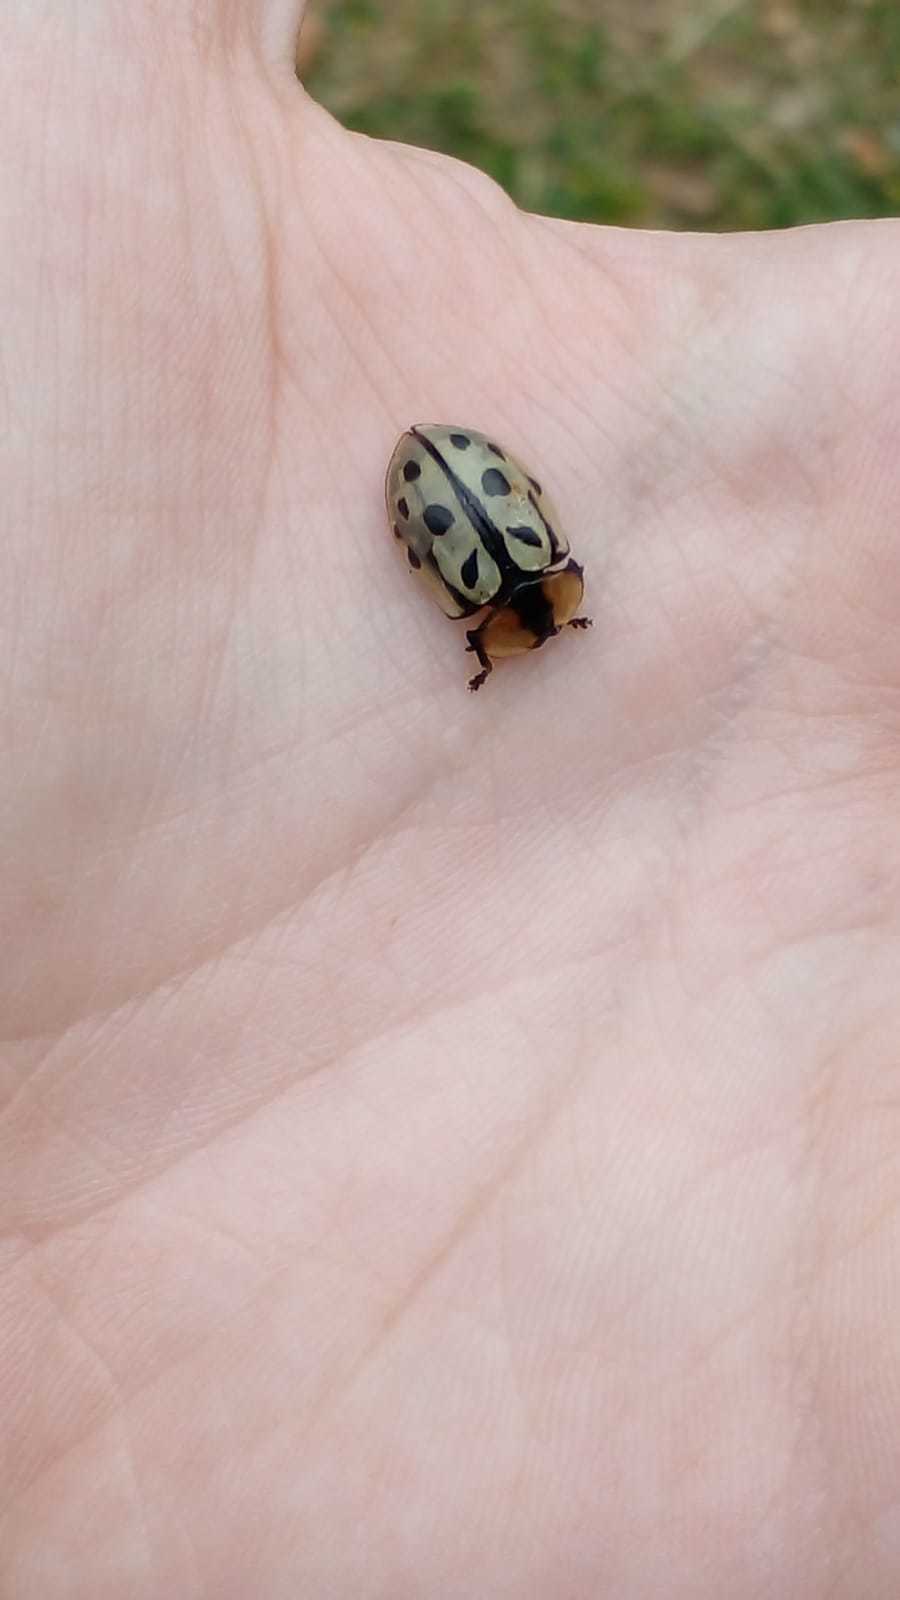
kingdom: Animalia
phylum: Arthropoda
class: Insecta
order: Coleoptera
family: Chrysomelidae
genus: Zatrephina
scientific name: Zatrephina sexlunata
